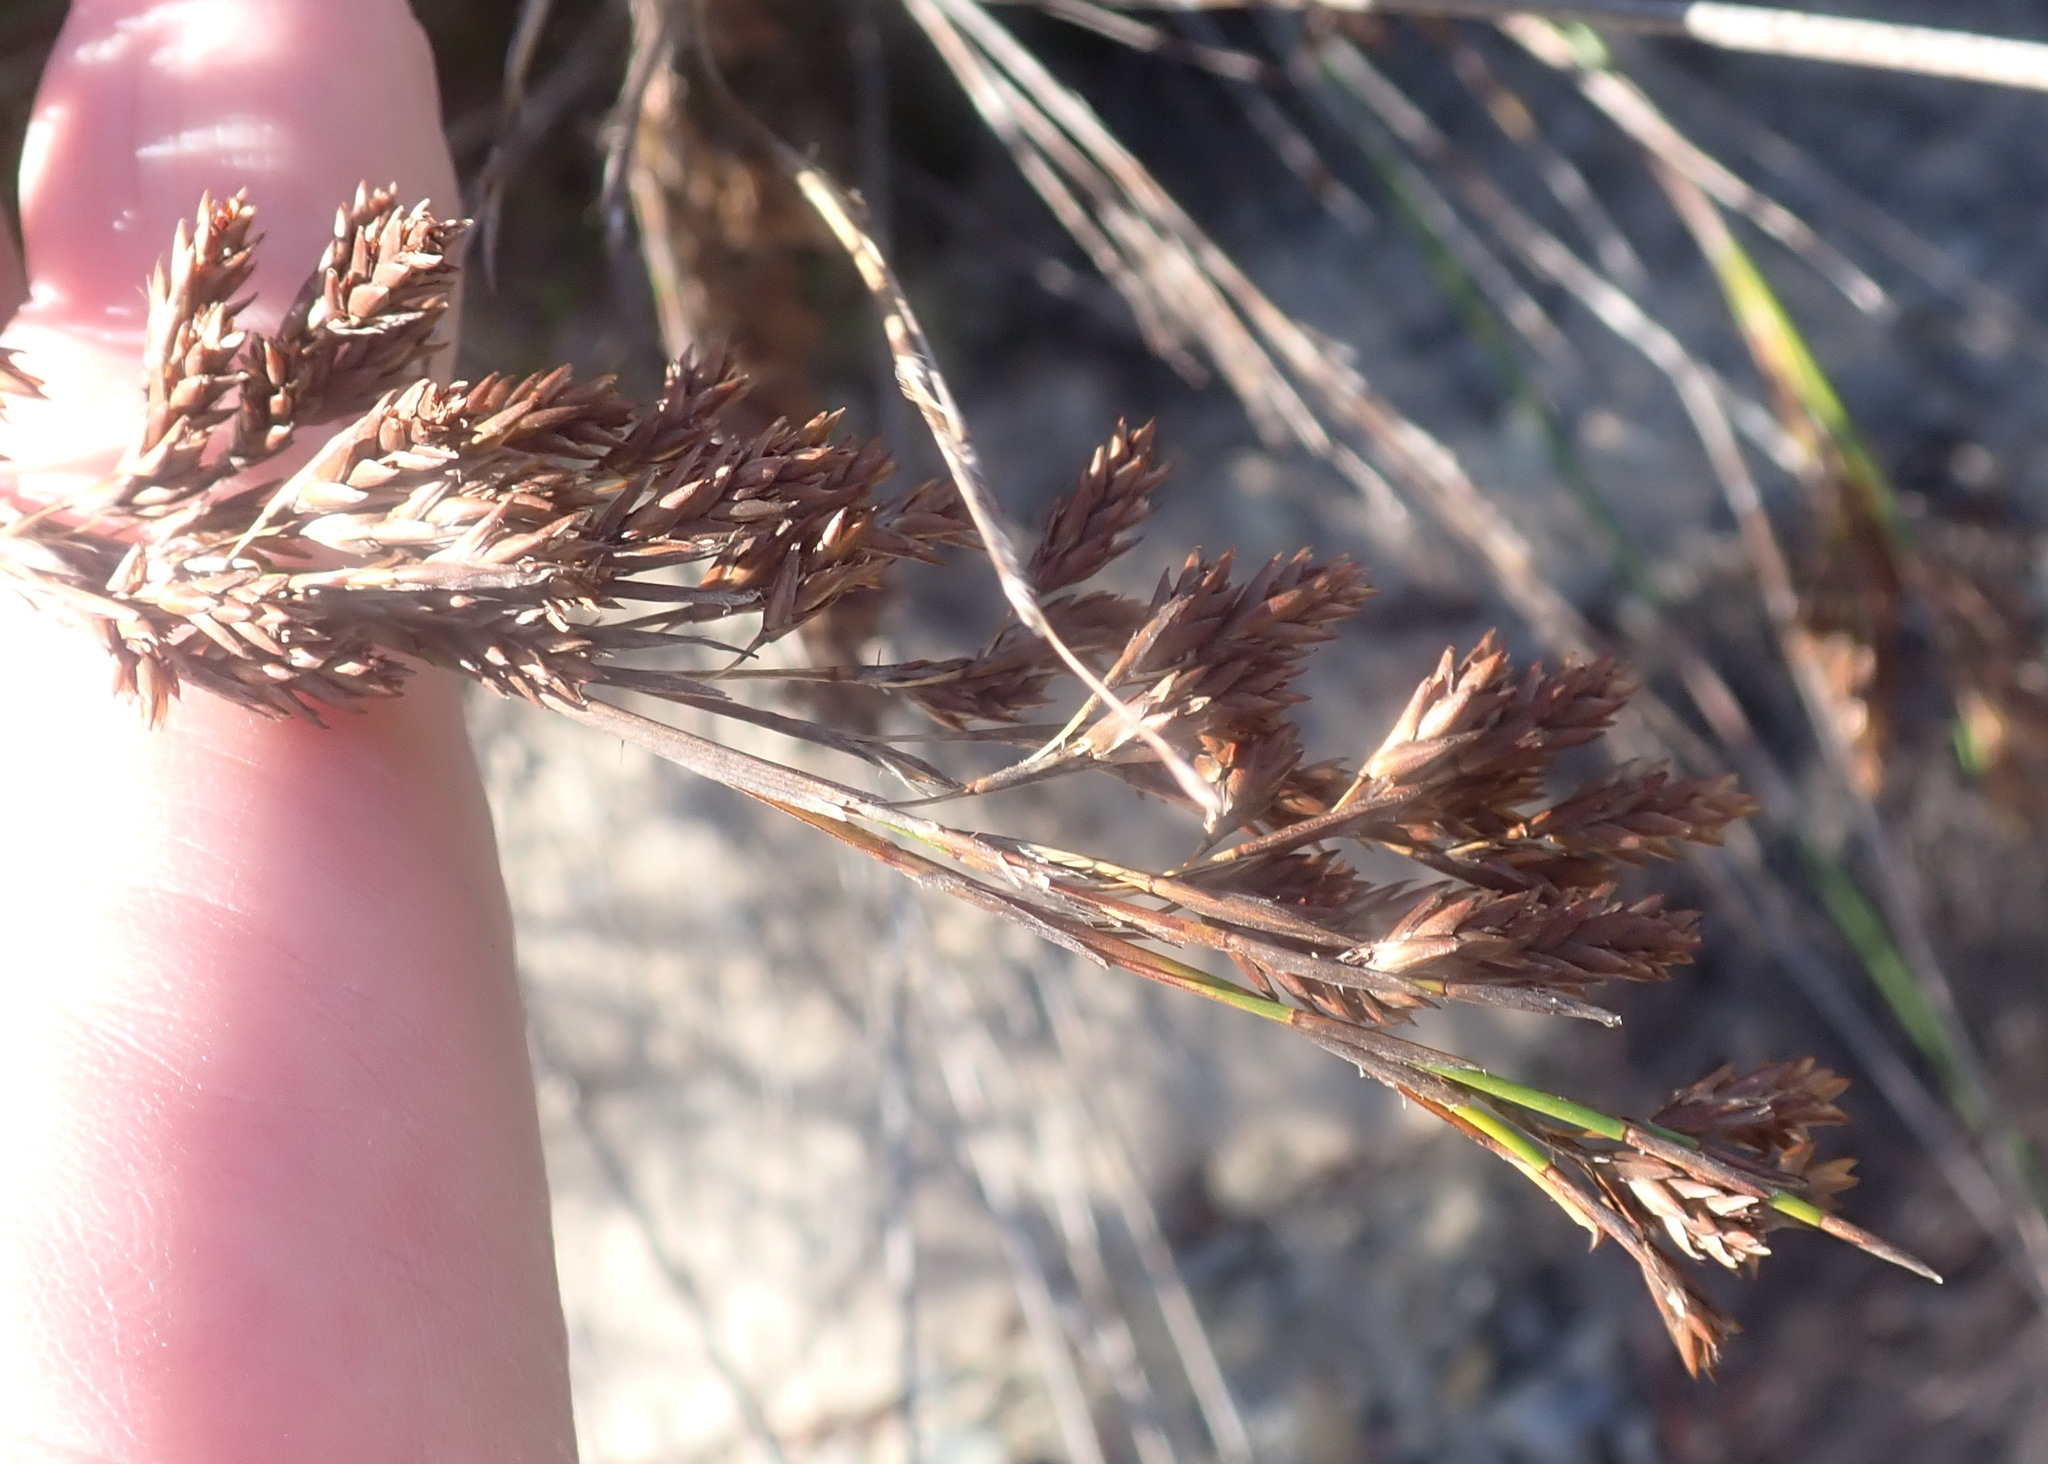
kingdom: Plantae
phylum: Tracheophyta
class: Liliopsida
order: Poales
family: Restionaceae
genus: Thamnochortus
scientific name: Thamnochortus glaber
